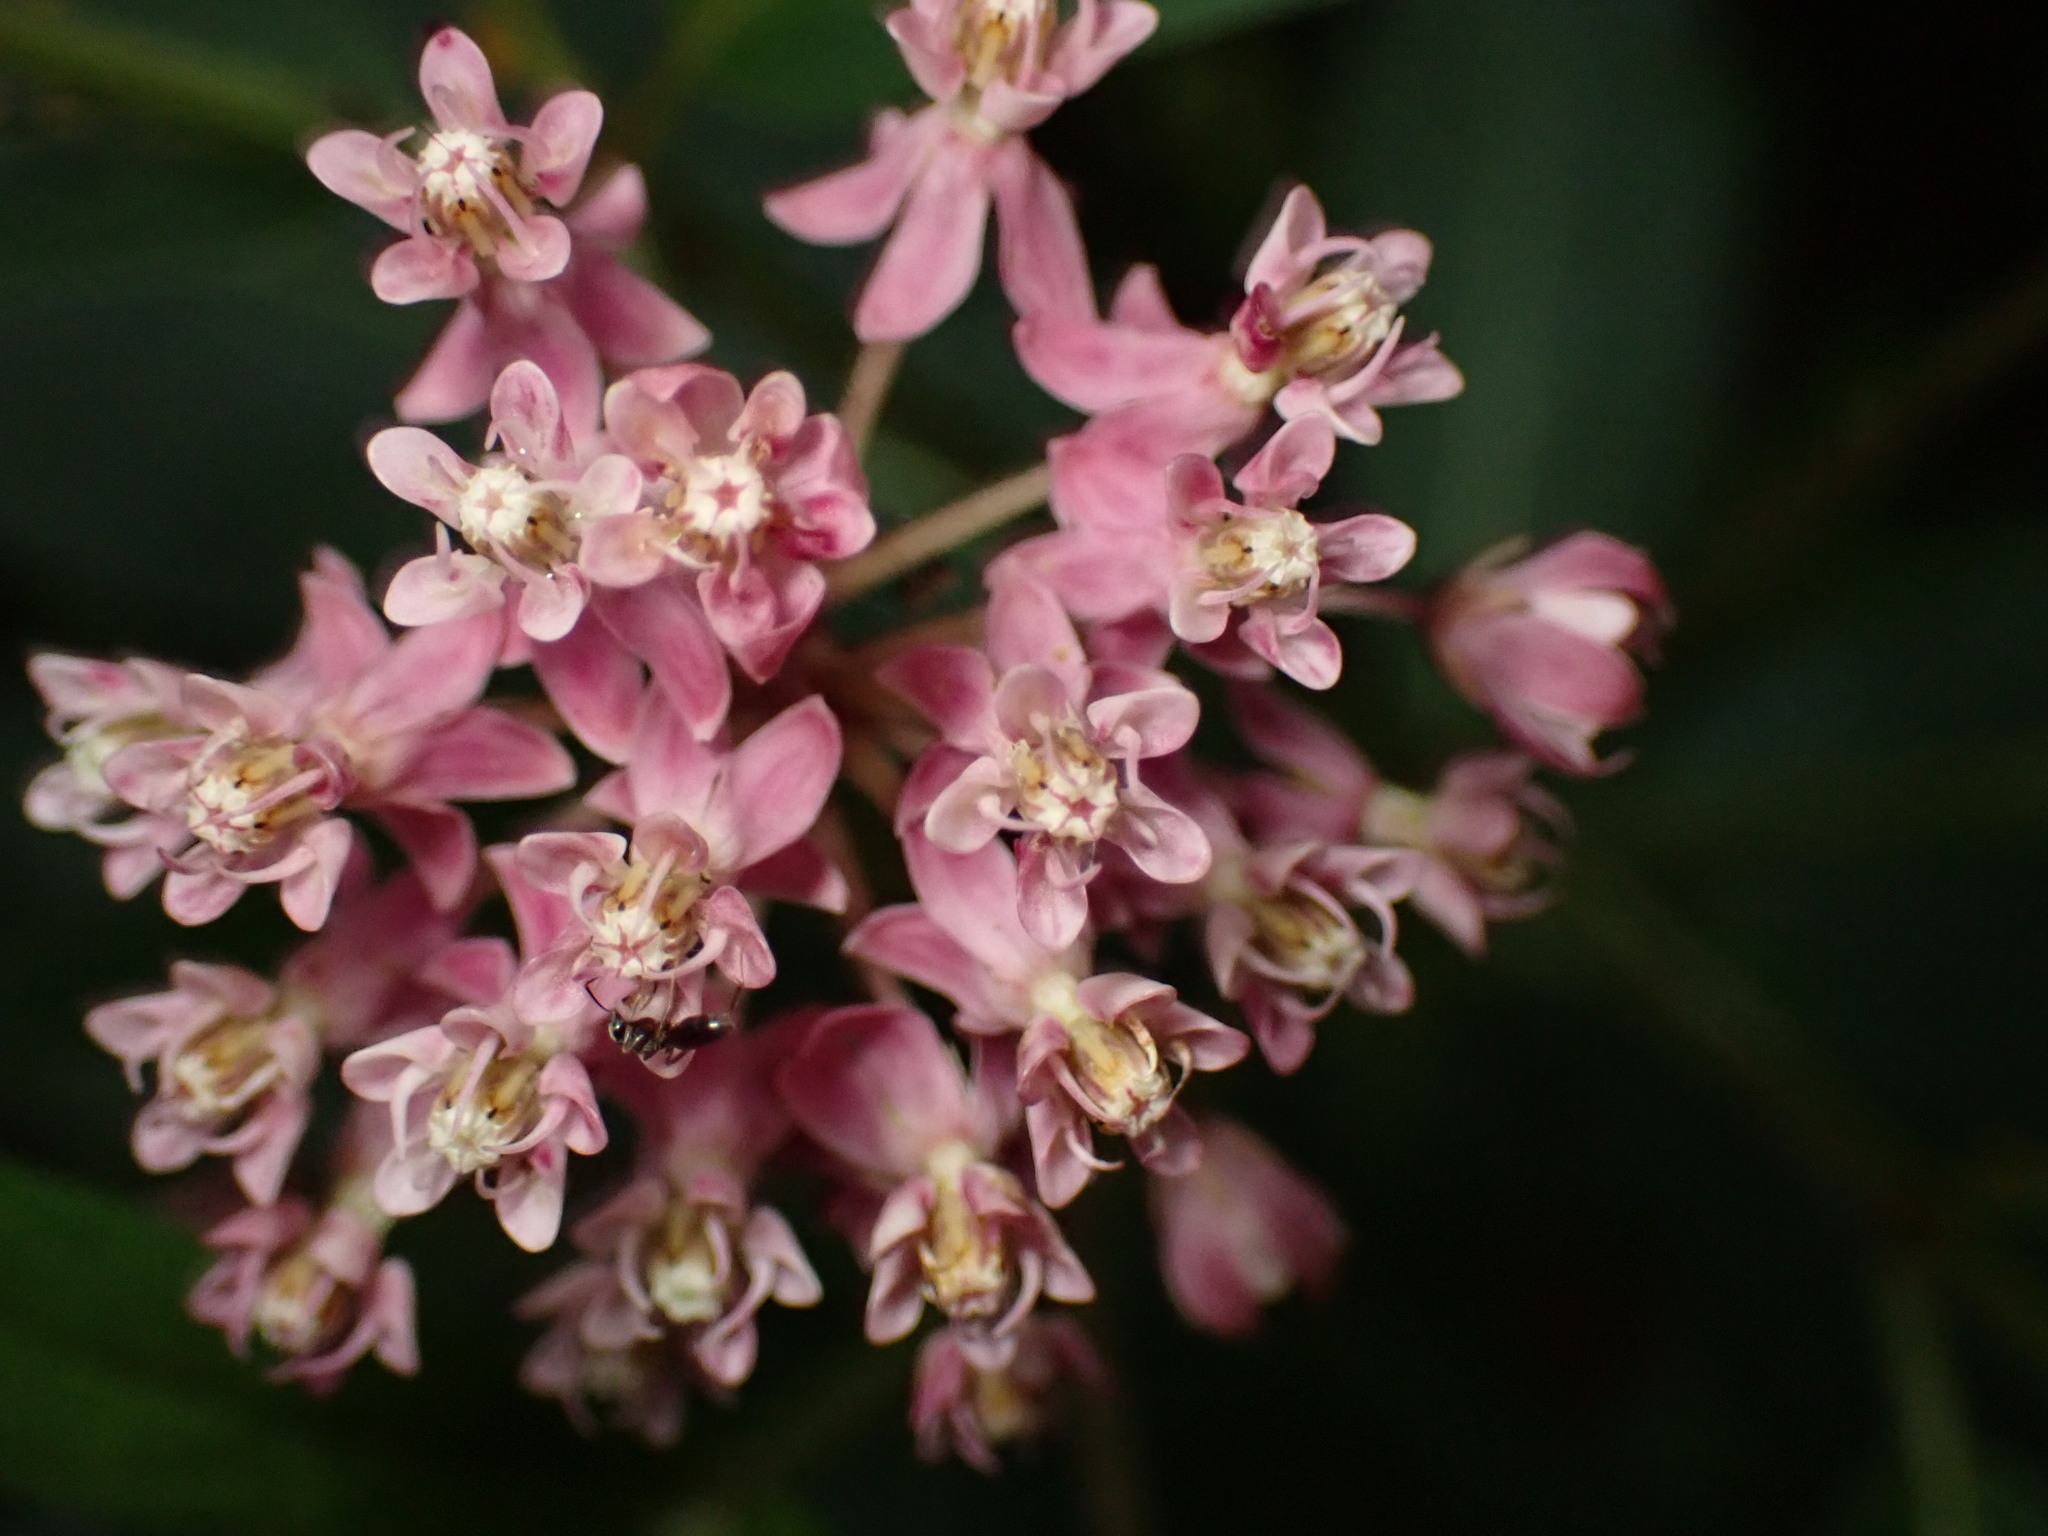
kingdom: Plantae
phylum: Tracheophyta
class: Magnoliopsida
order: Gentianales
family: Apocynaceae
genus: Asclepias
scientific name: Asclepias incarnata
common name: Swamp milkweed
